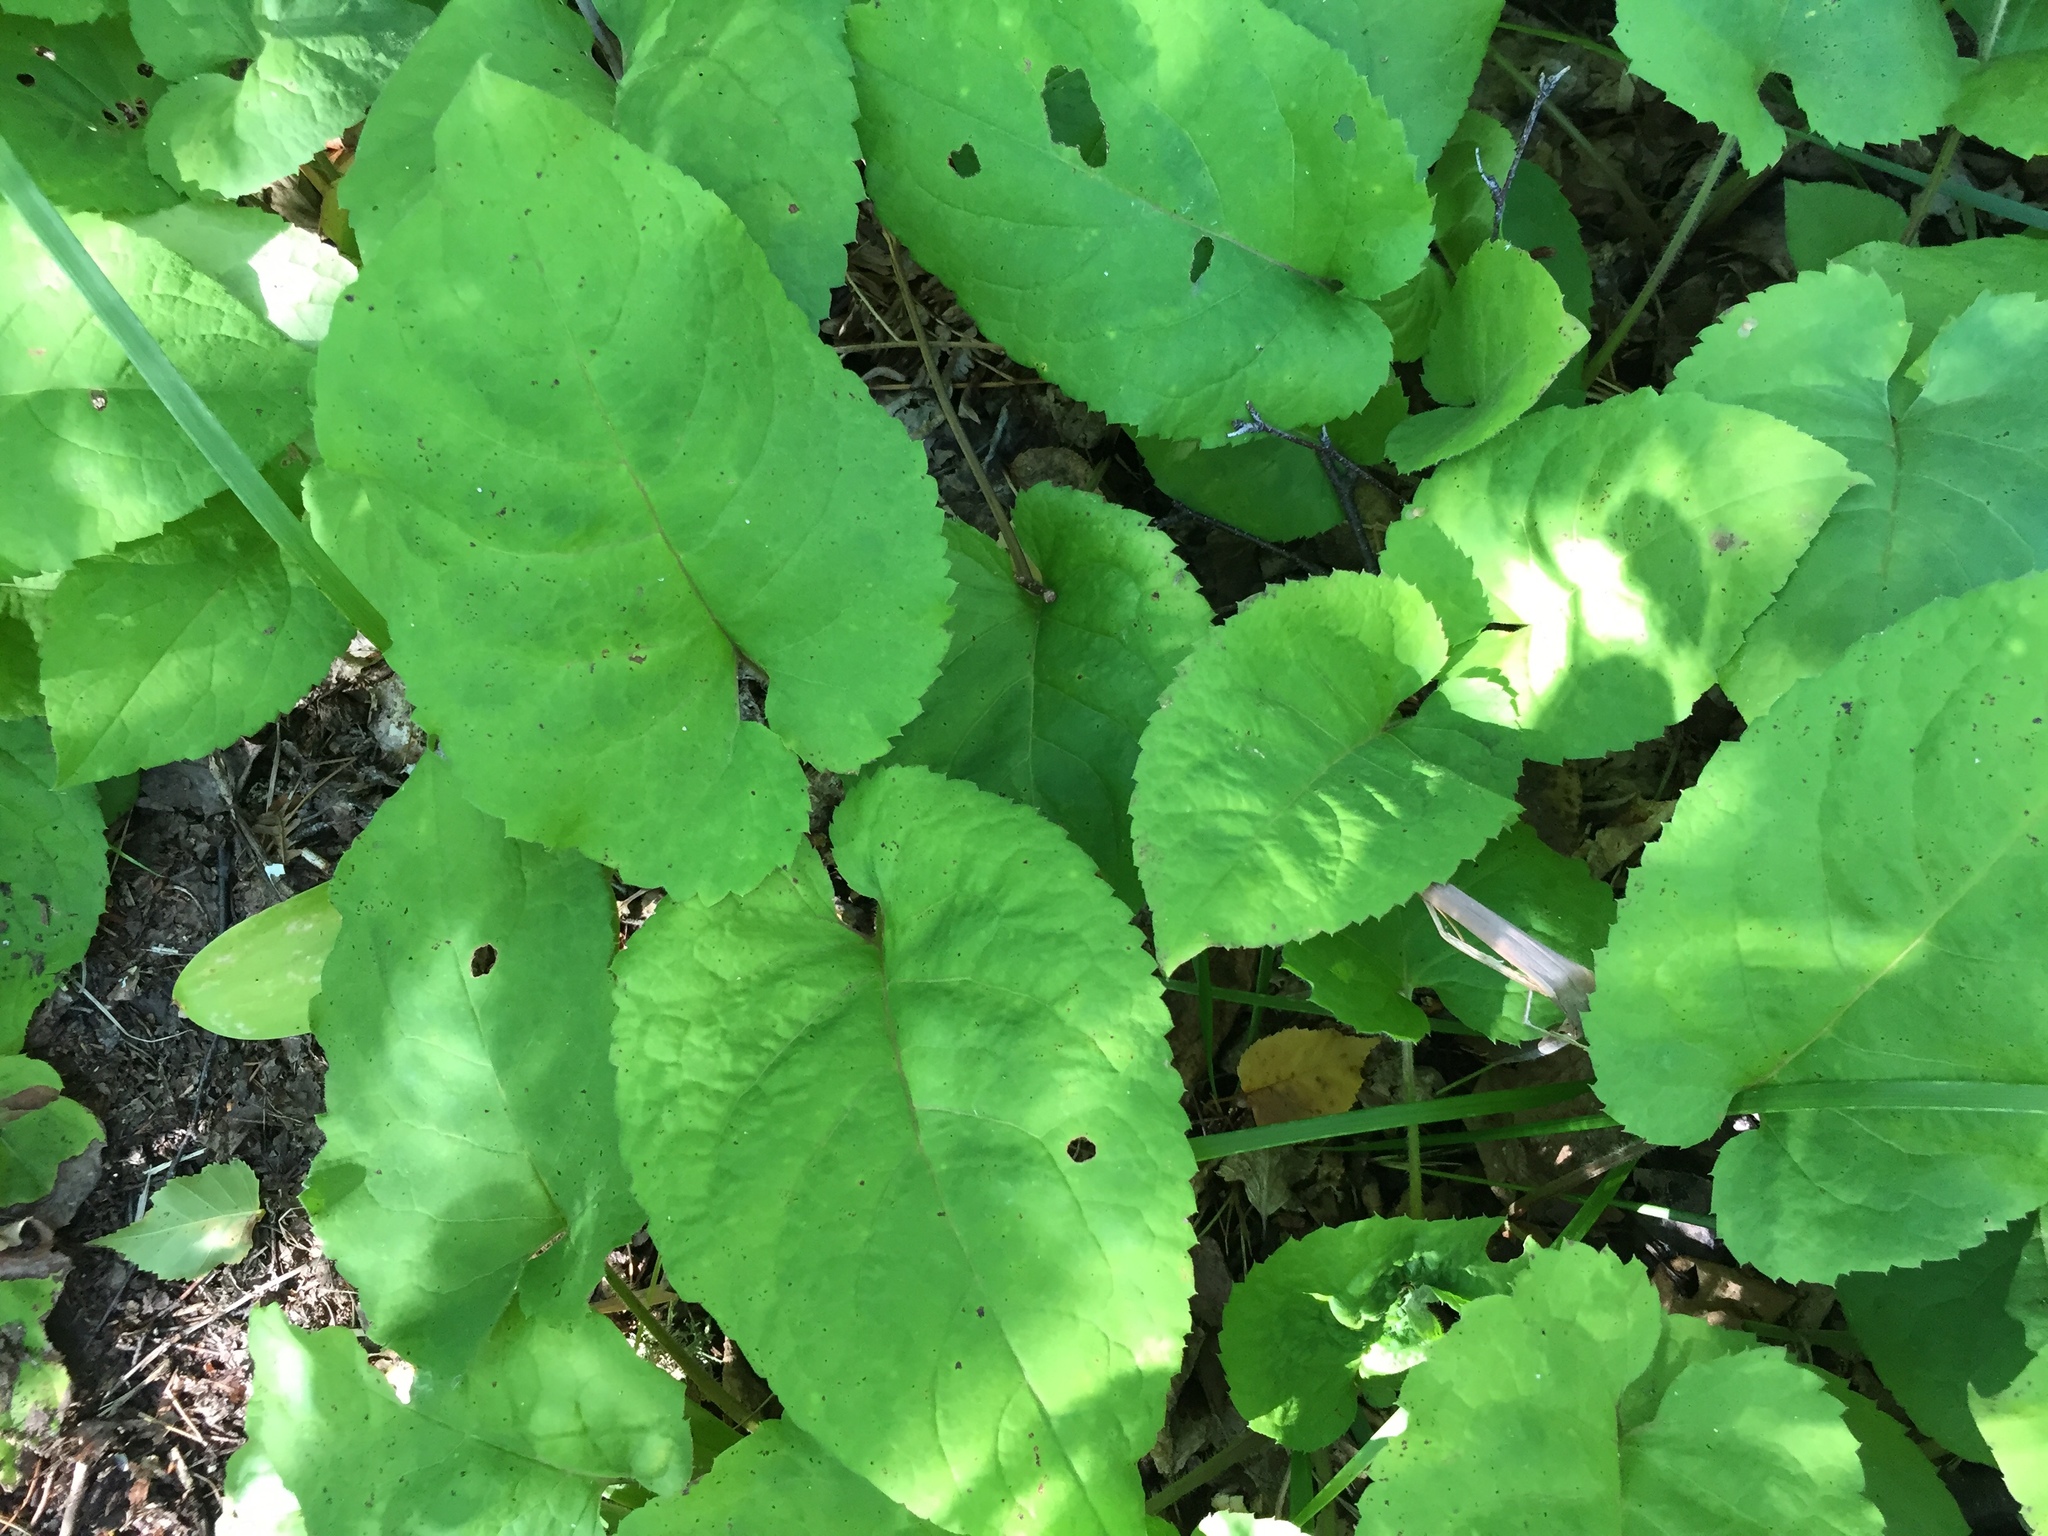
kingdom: Plantae
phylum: Tracheophyta
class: Magnoliopsida
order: Asterales
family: Asteraceae
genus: Eurybia
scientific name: Eurybia macrophylla
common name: Big-leaved aster
